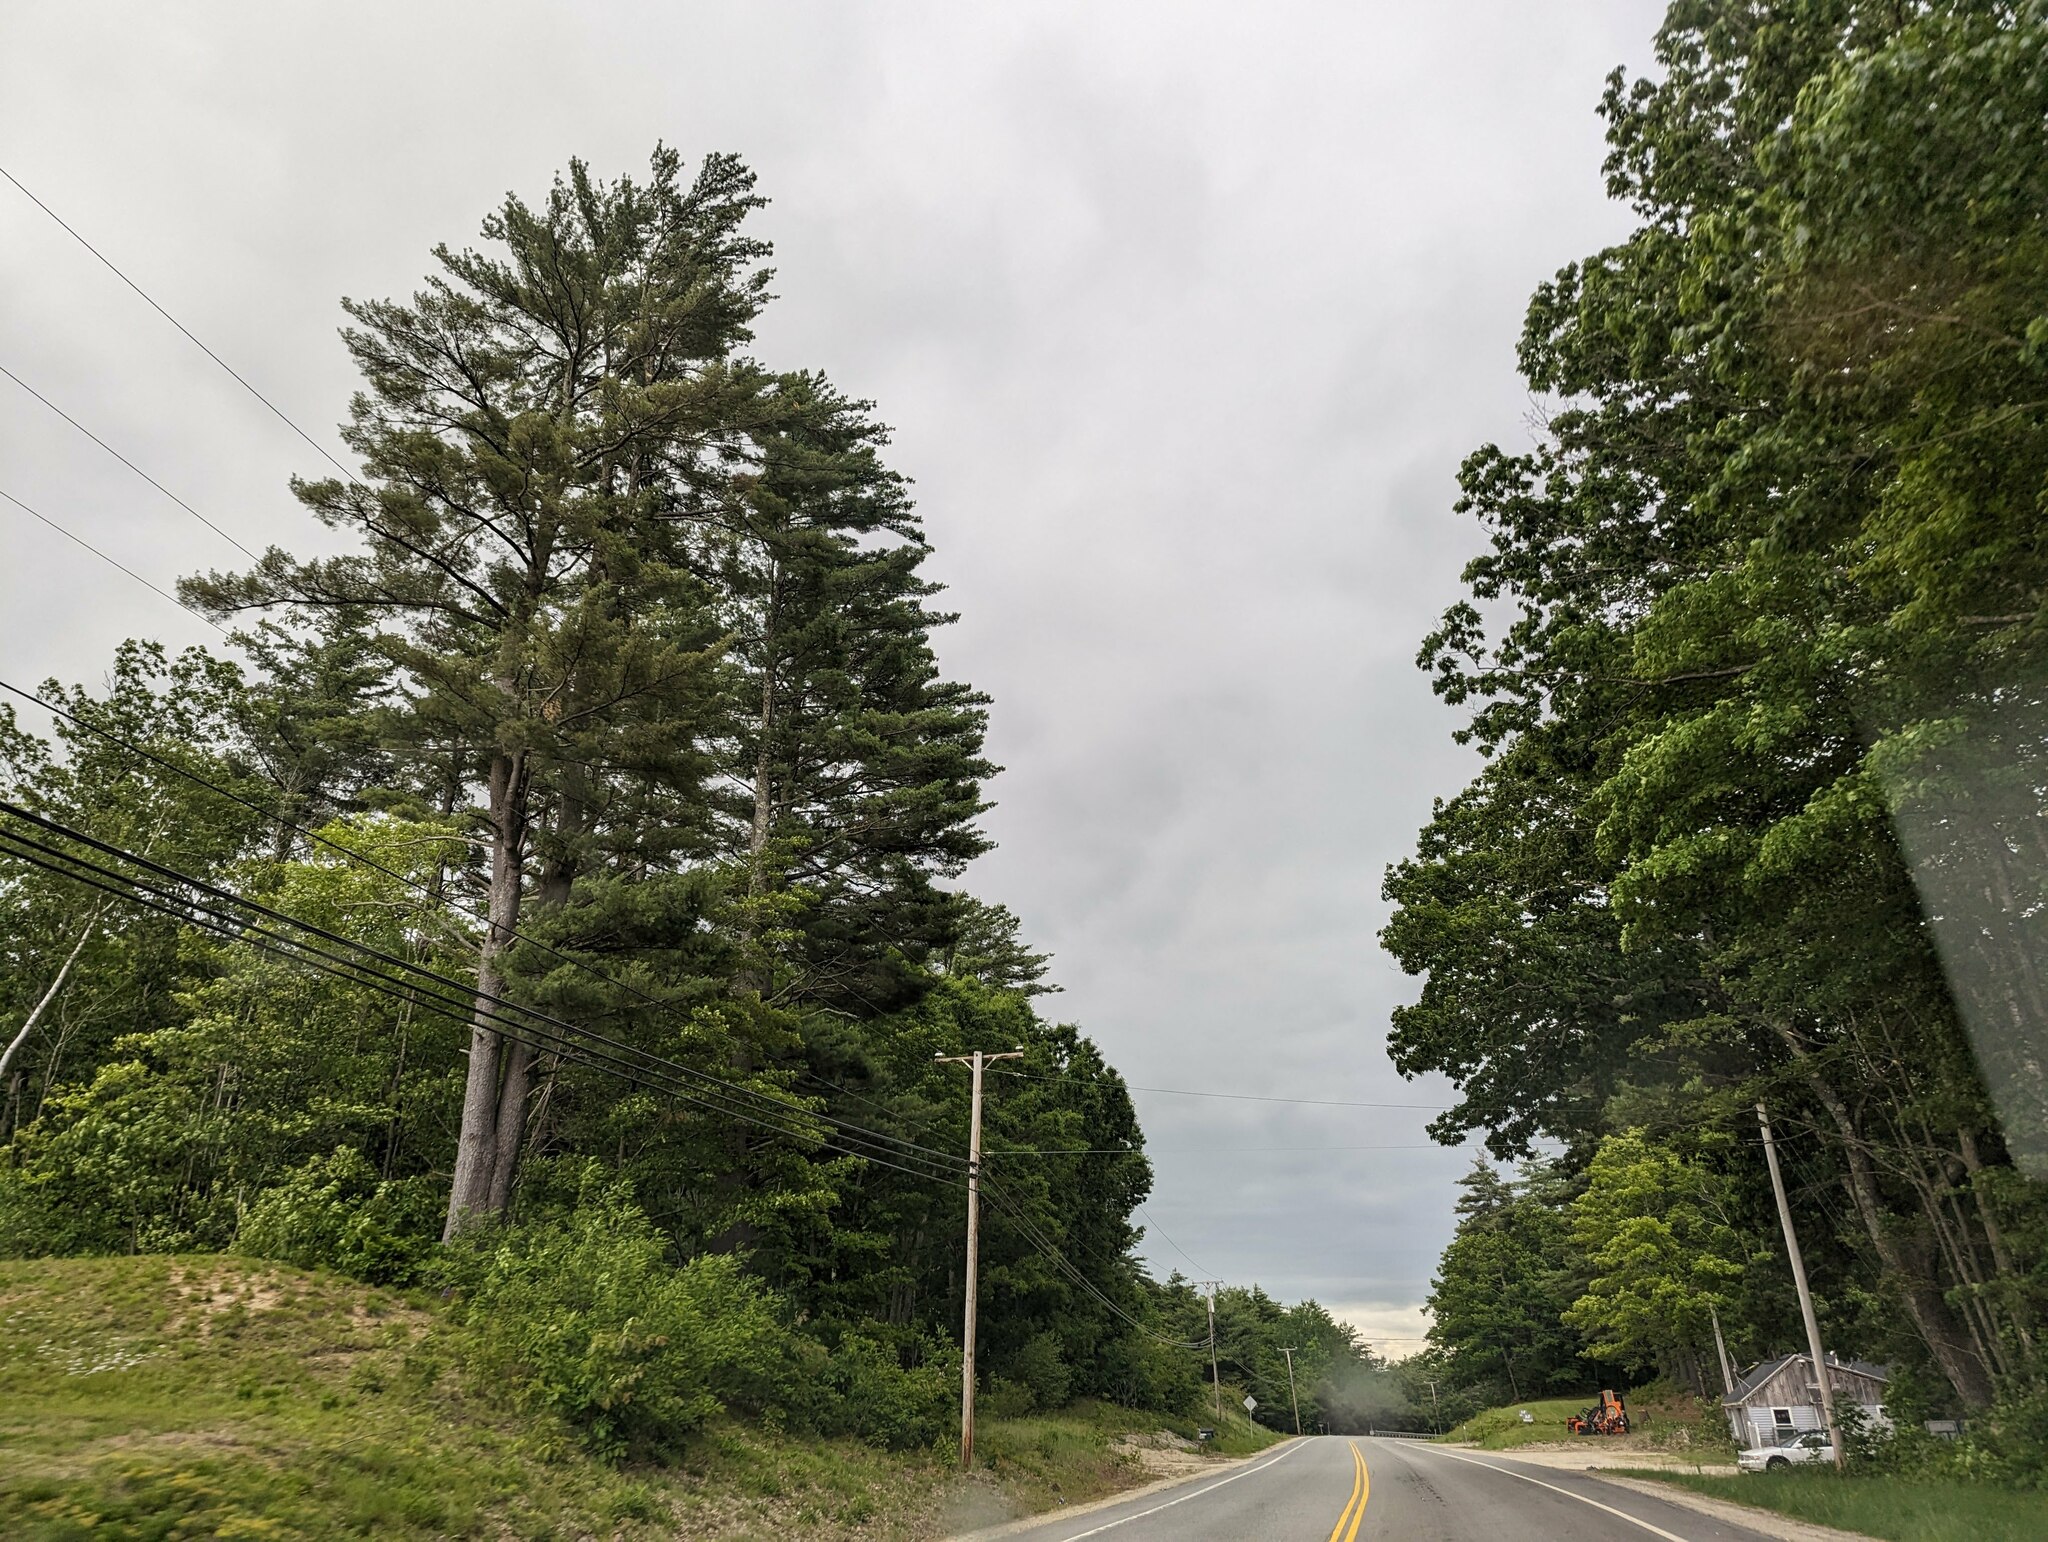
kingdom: Plantae
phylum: Tracheophyta
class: Pinopsida
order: Pinales
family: Pinaceae
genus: Pinus
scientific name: Pinus strobus
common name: Weymouth pine
